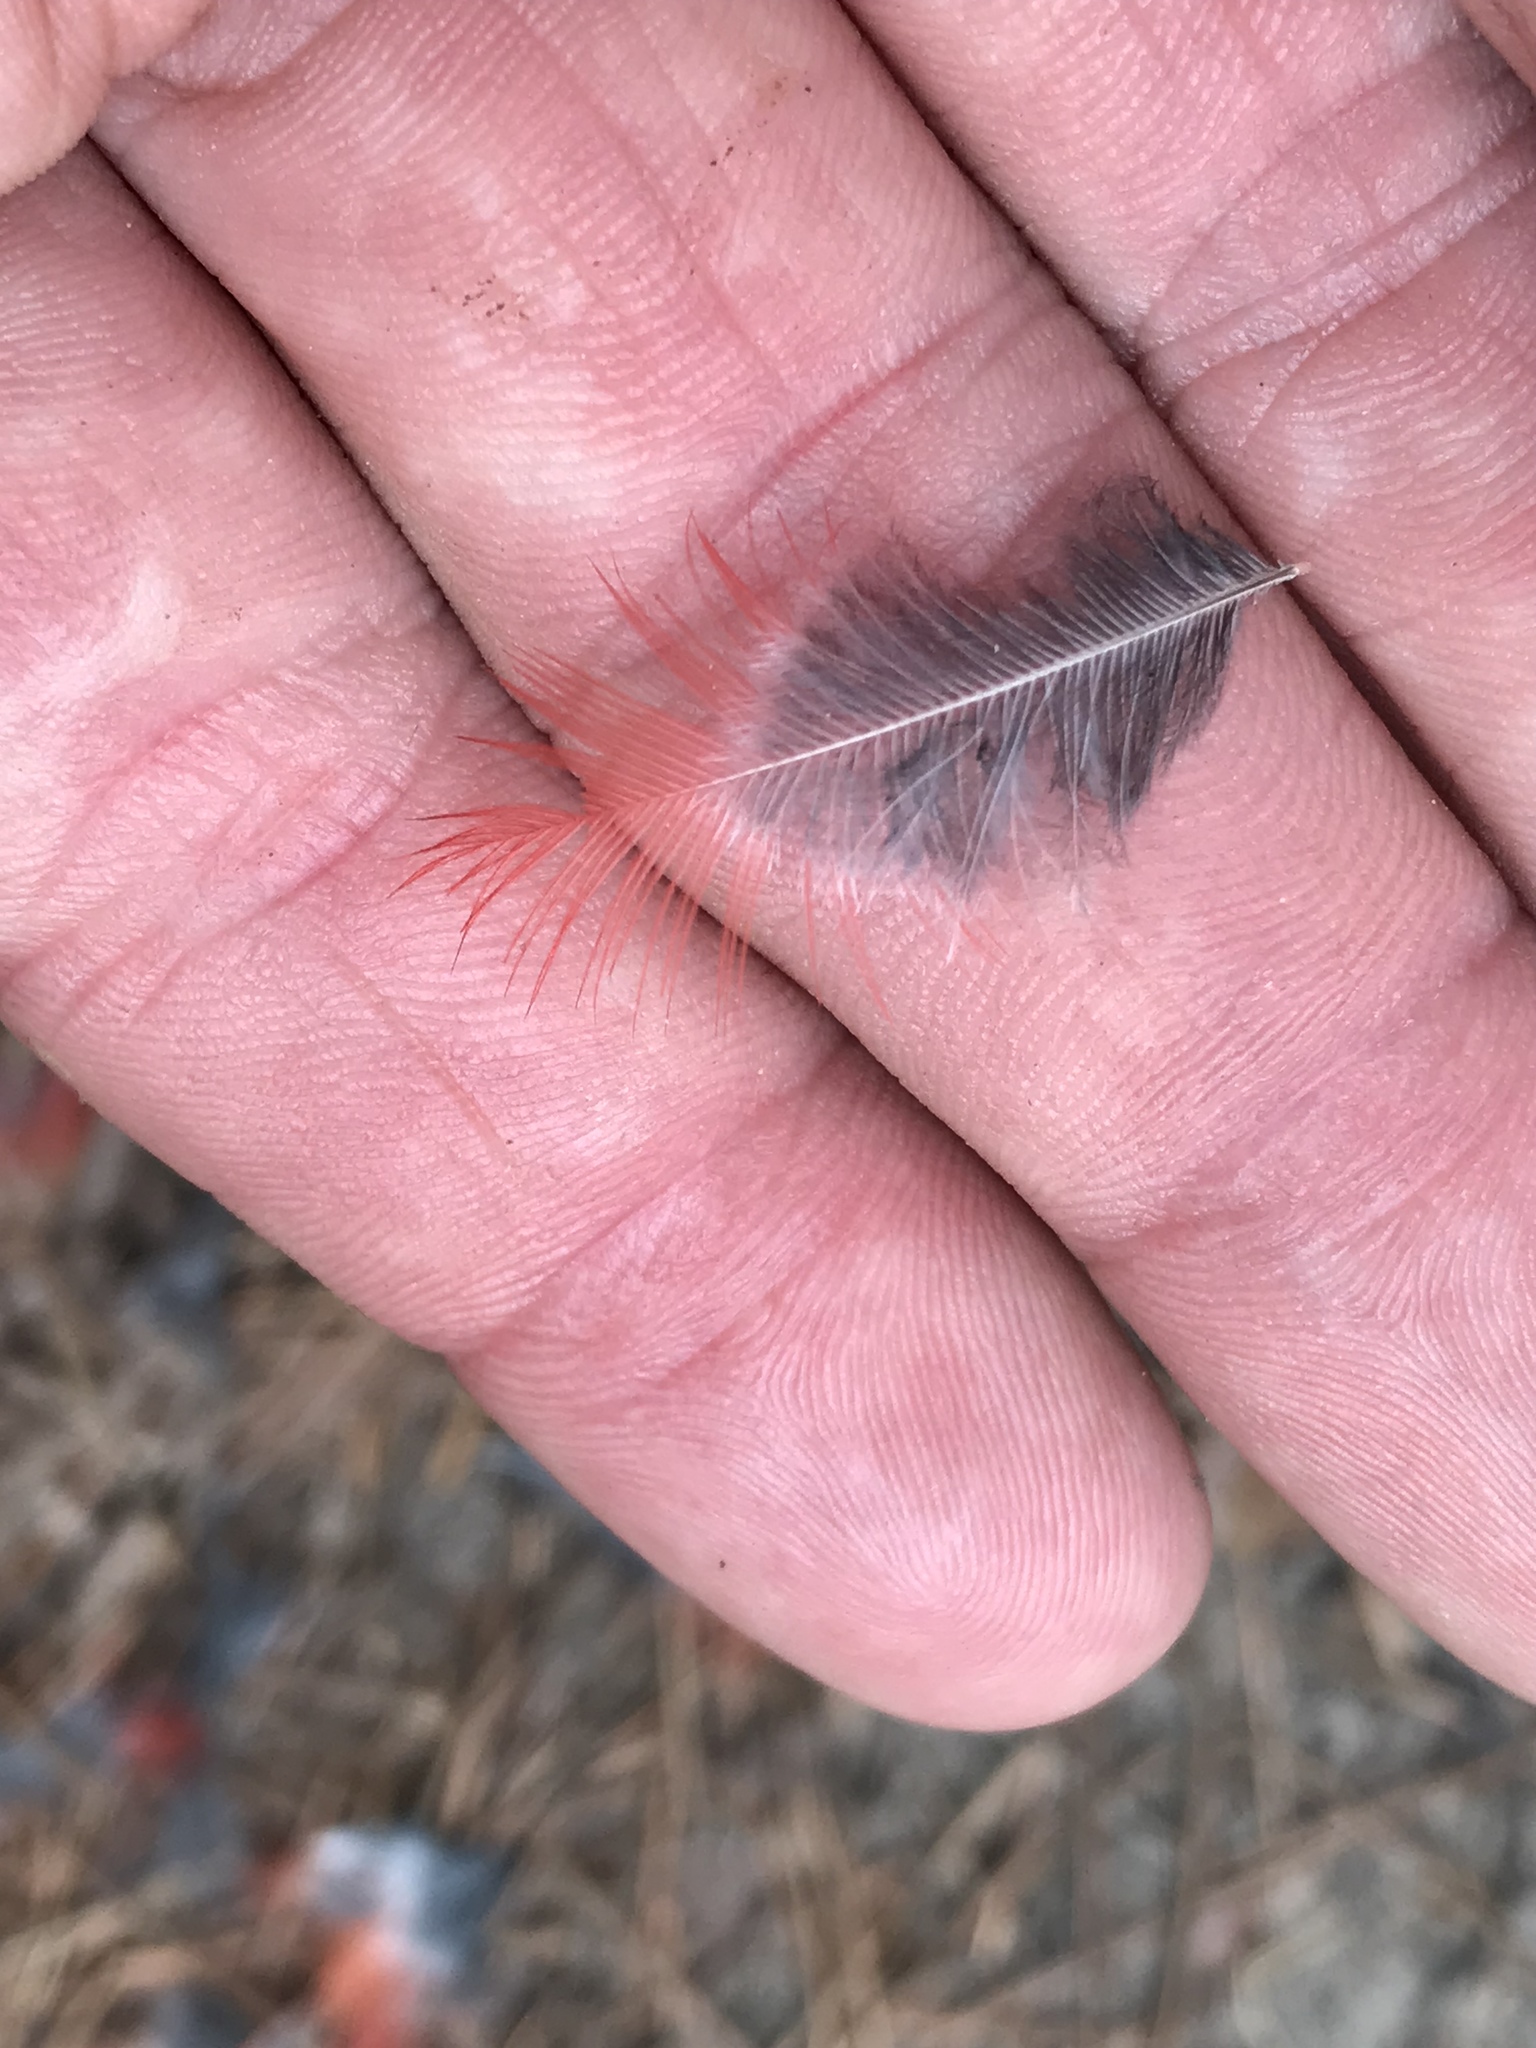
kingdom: Animalia
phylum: Chordata
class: Aves
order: Passeriformes
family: Cardinalidae
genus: Cardinalis
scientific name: Cardinalis cardinalis
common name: Northern cardinal
